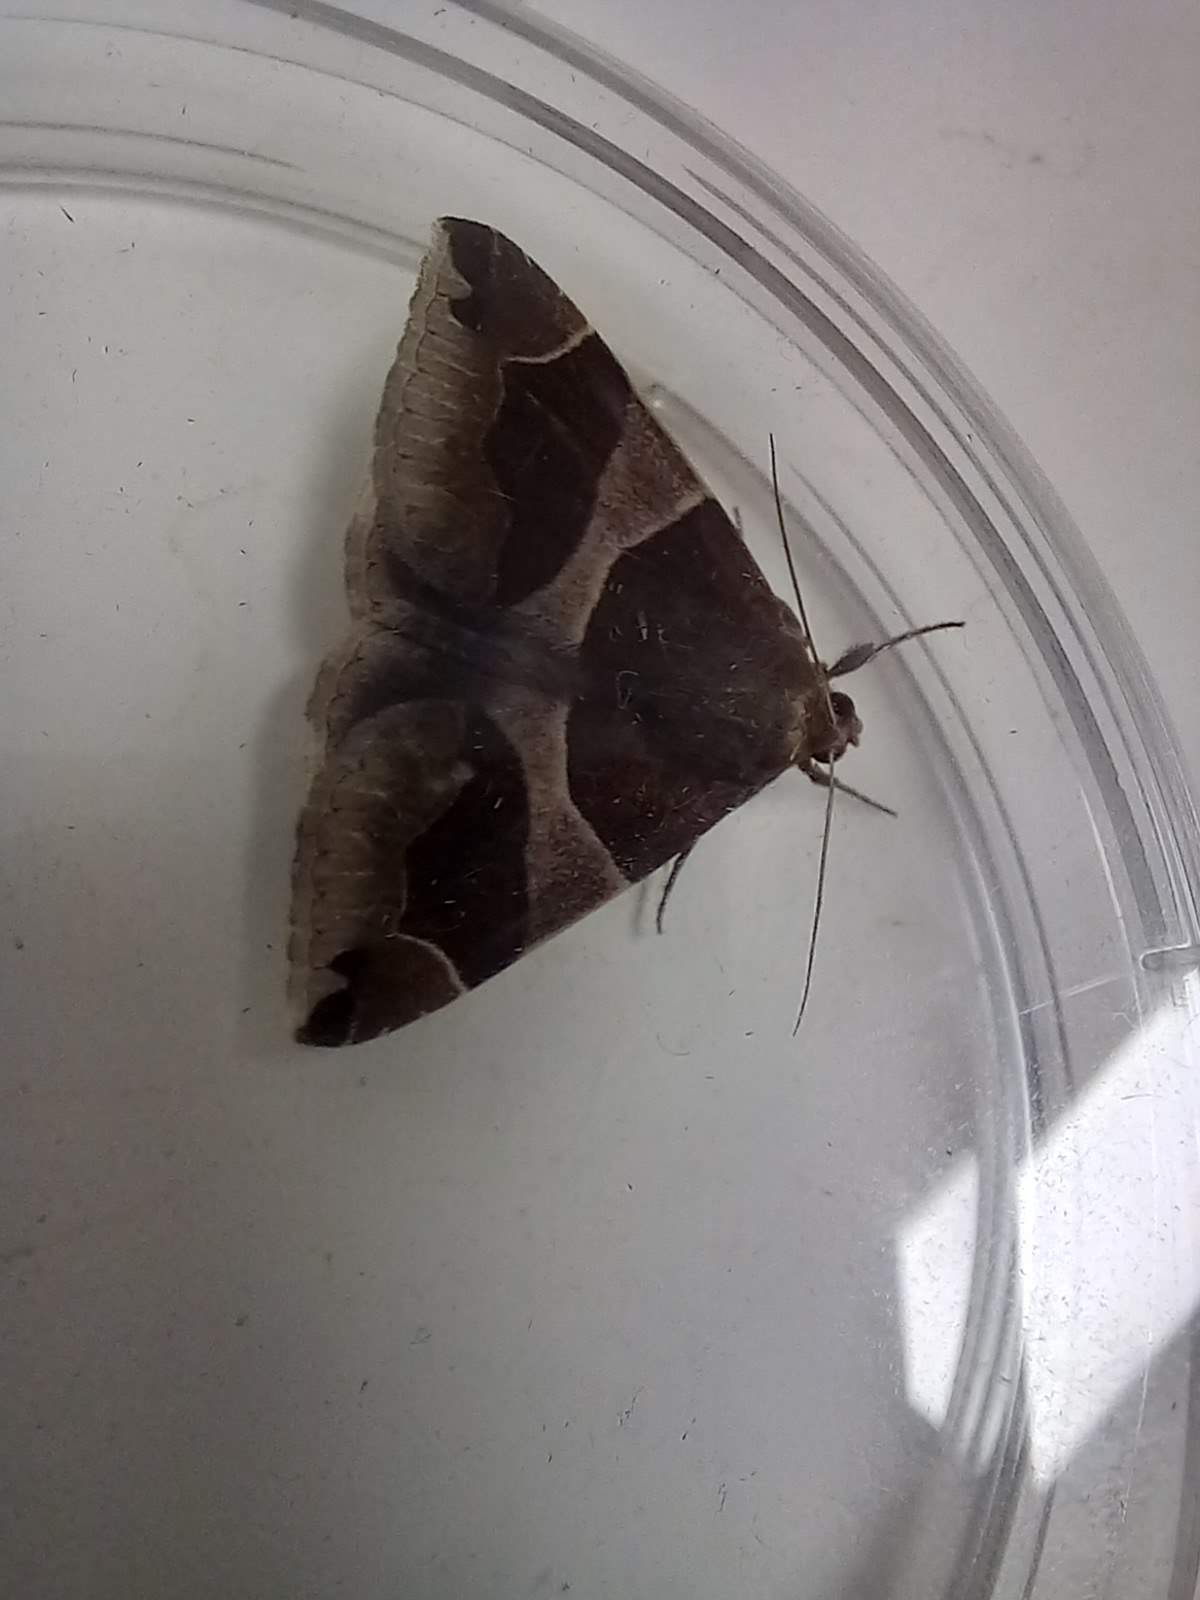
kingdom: Animalia
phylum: Arthropoda
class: Insecta
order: Lepidoptera
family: Erebidae
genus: Dysgonia
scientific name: Dysgonia algira
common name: Passenger
